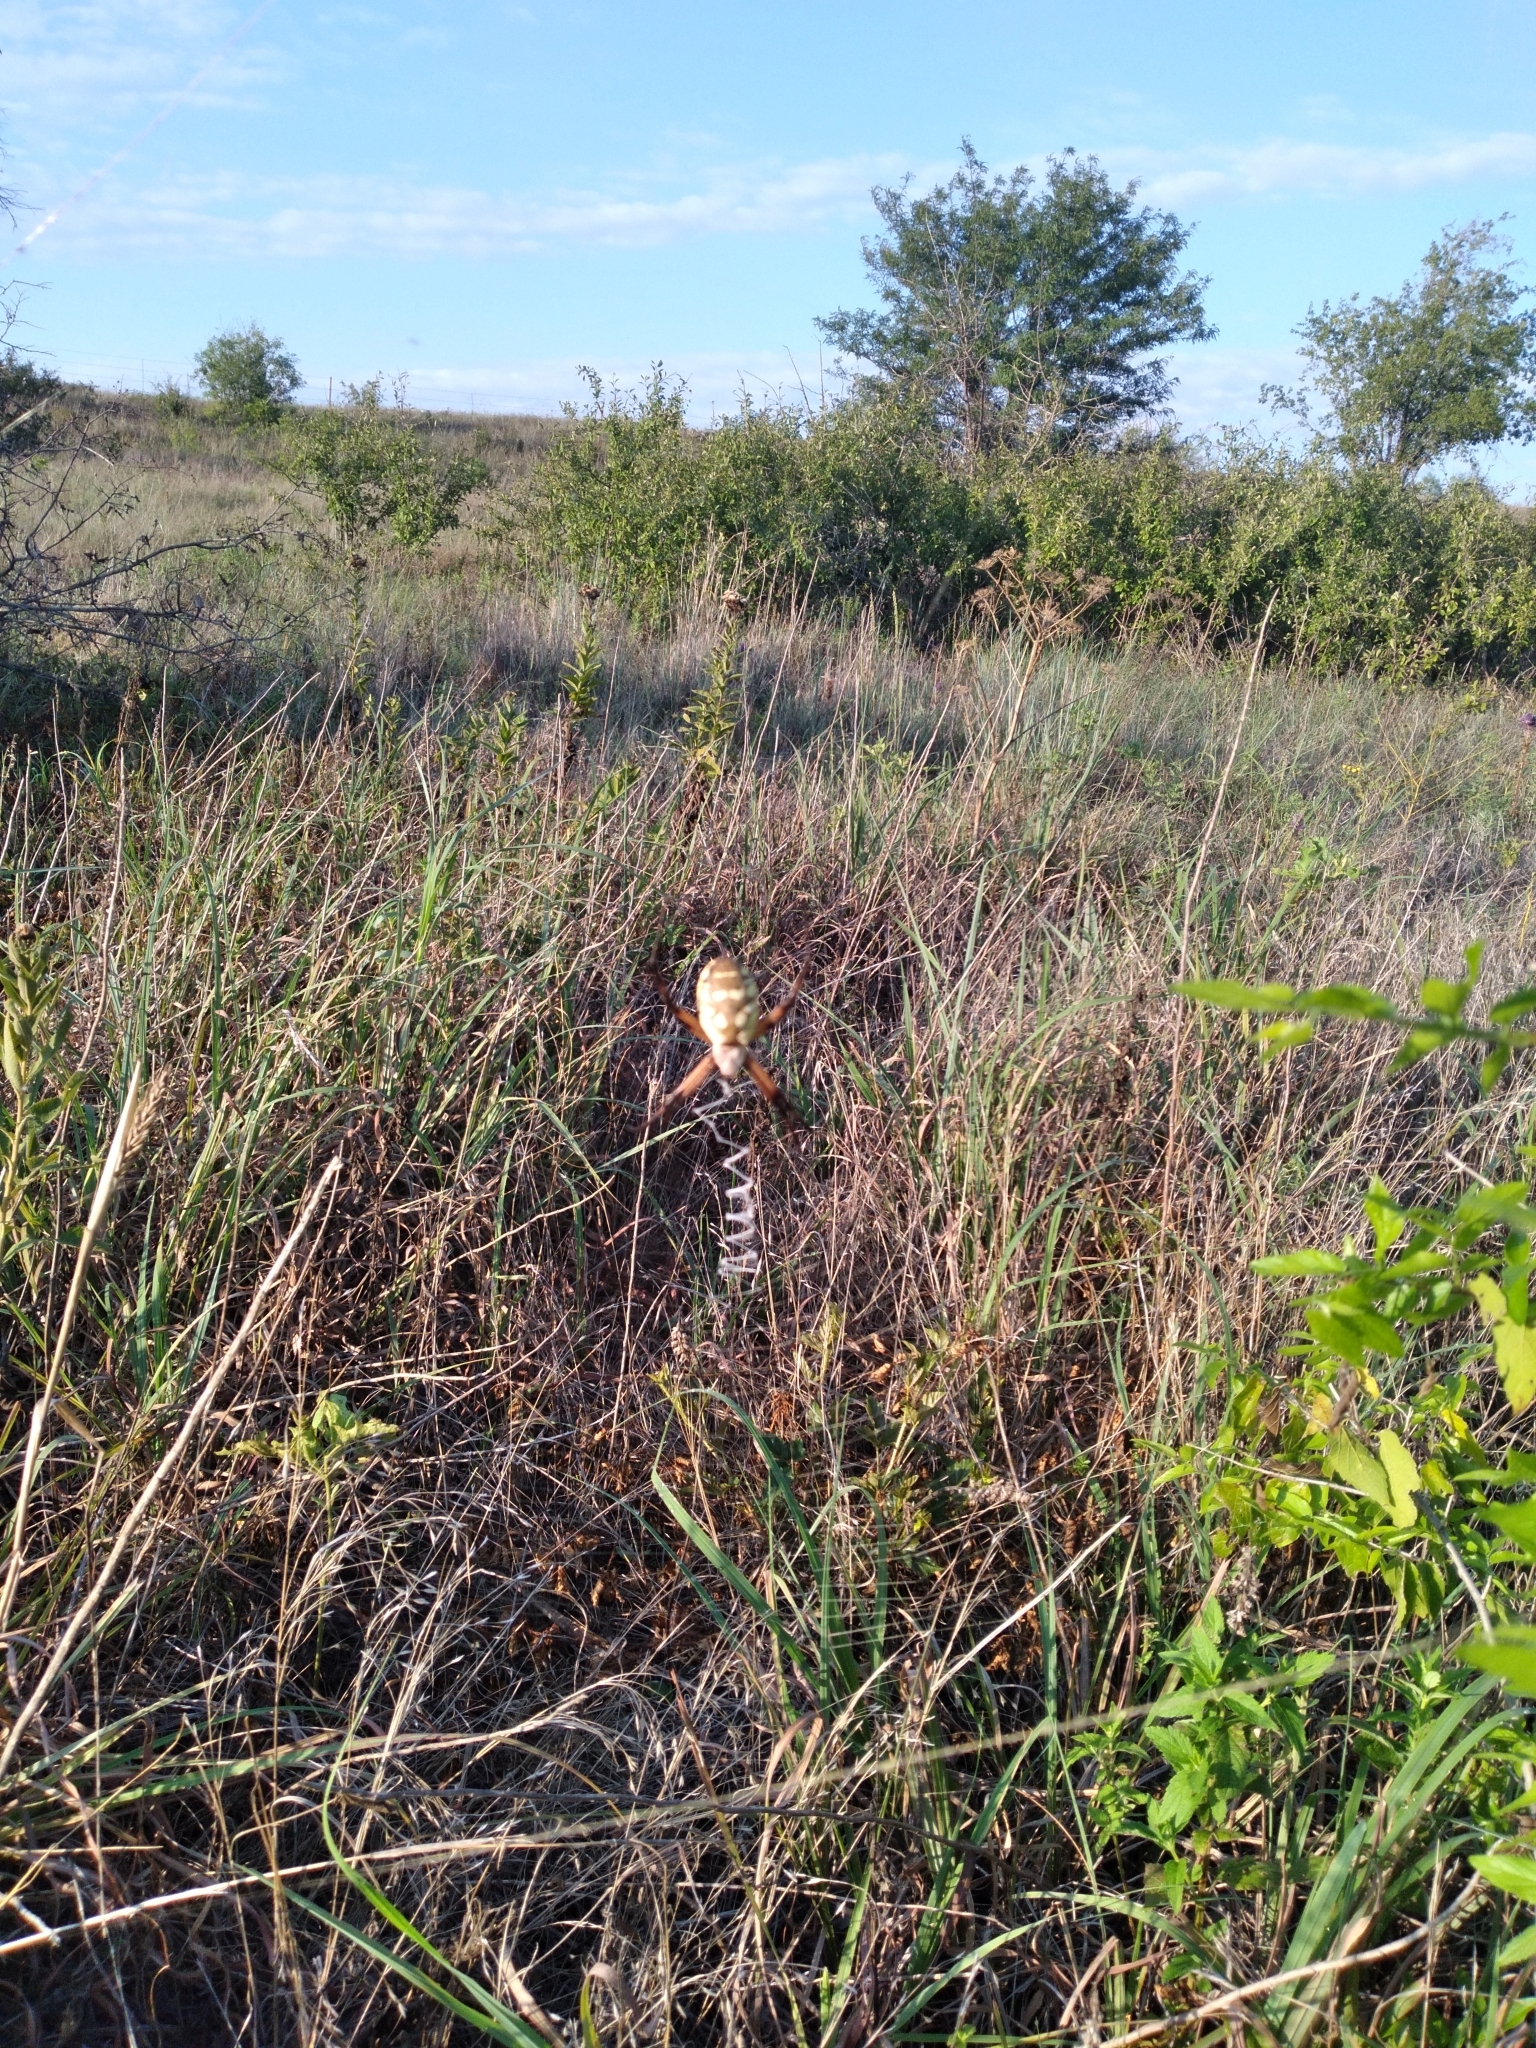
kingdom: Animalia
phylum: Arthropoda
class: Arachnida
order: Araneae
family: Araneidae
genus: Argiope
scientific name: Argiope aurantia
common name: Orb weavers
